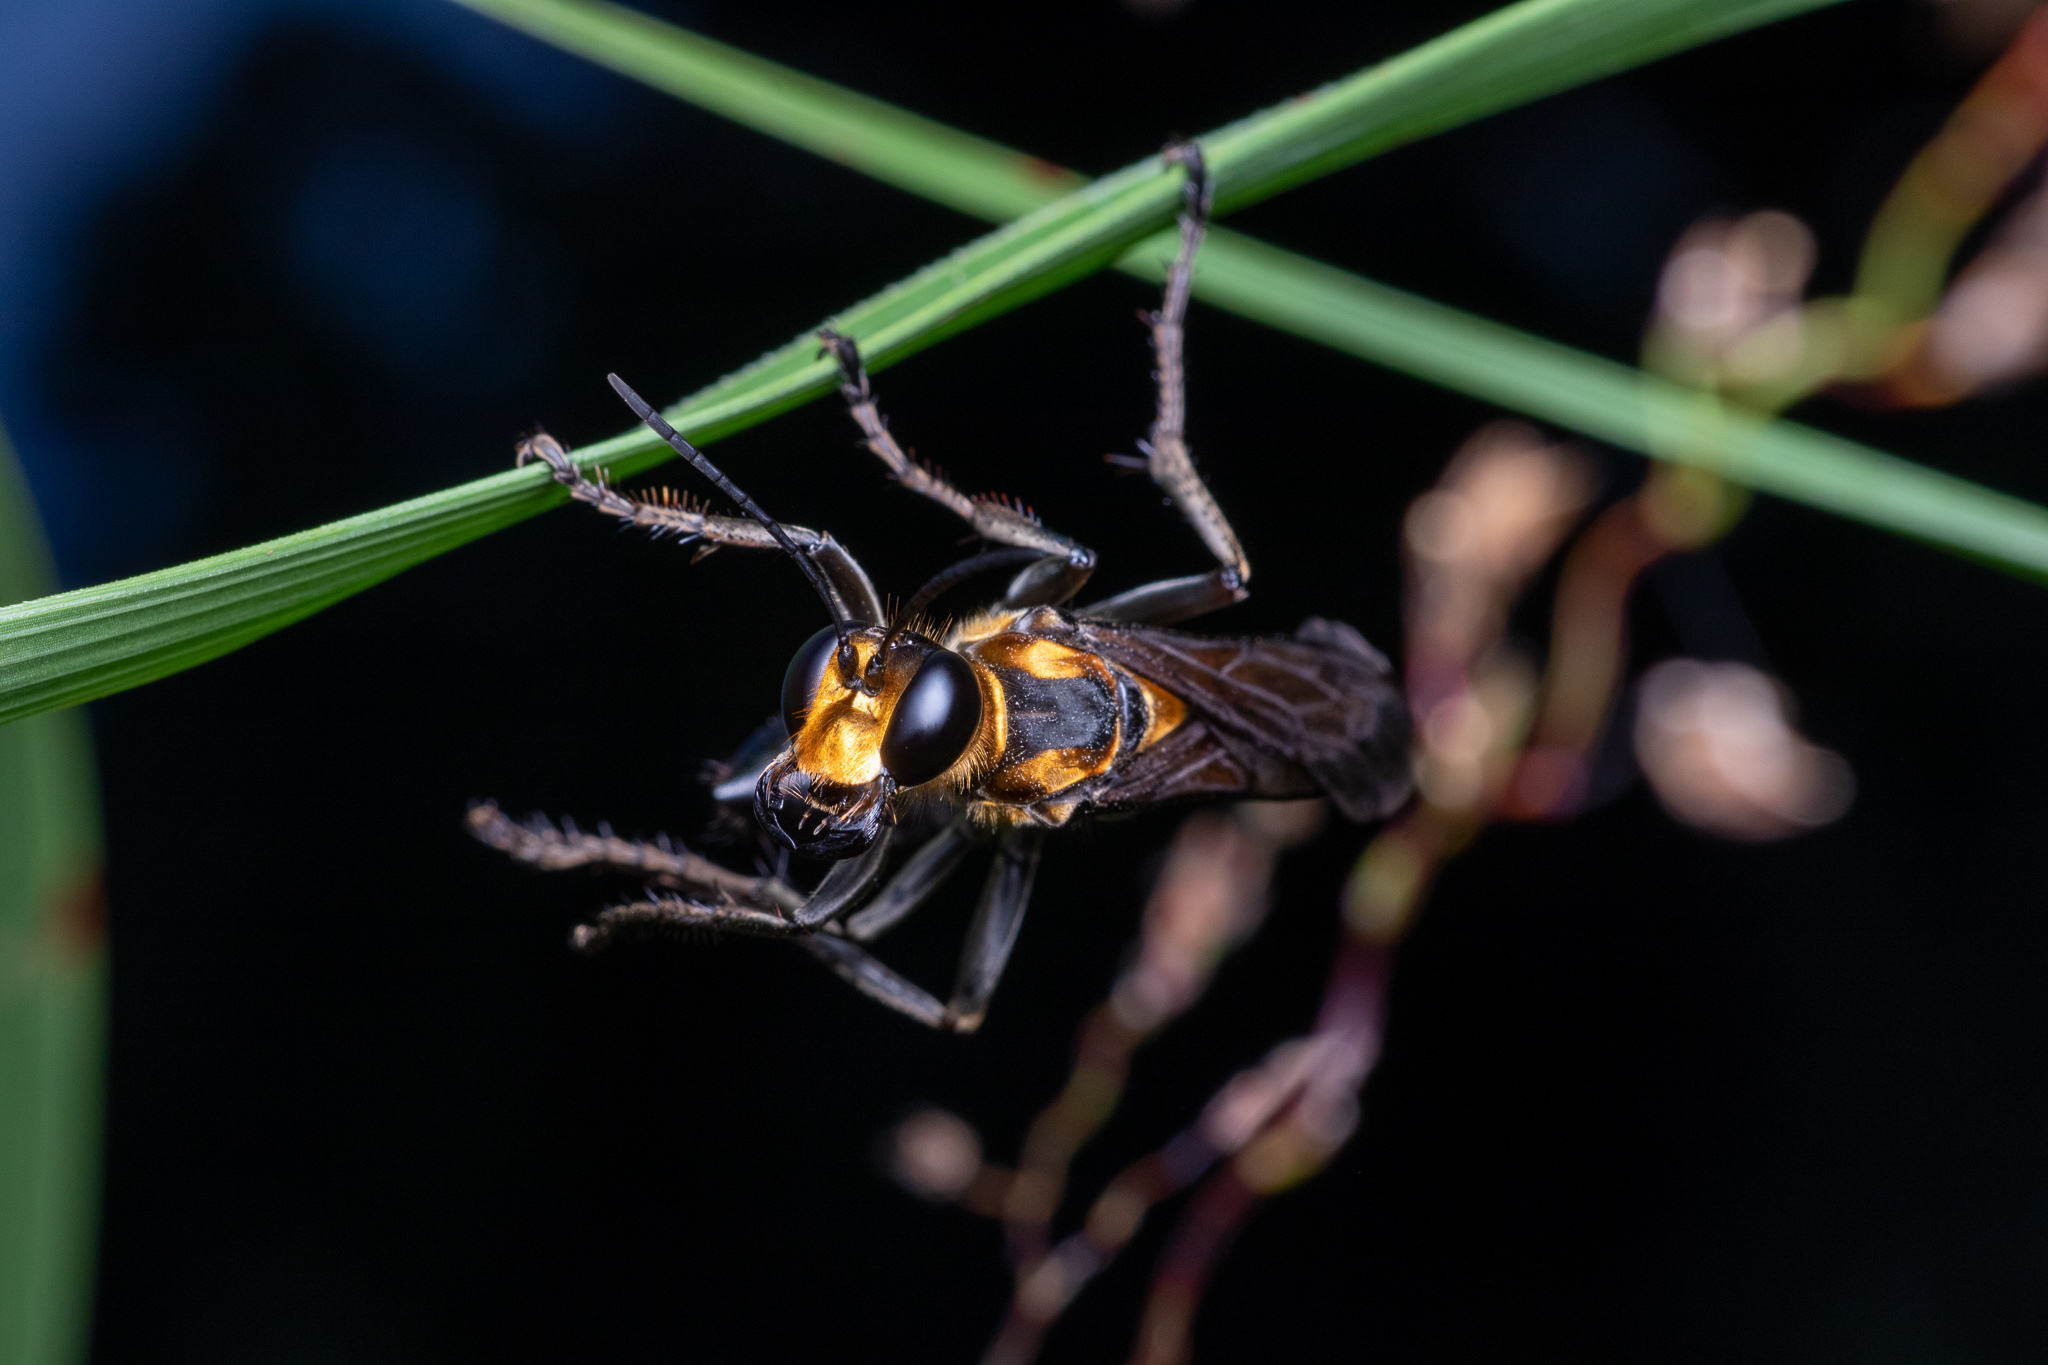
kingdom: Animalia
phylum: Arthropoda
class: Insecta
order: Hymenoptera
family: Sphecidae
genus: Sphex
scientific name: Sphex habenus
